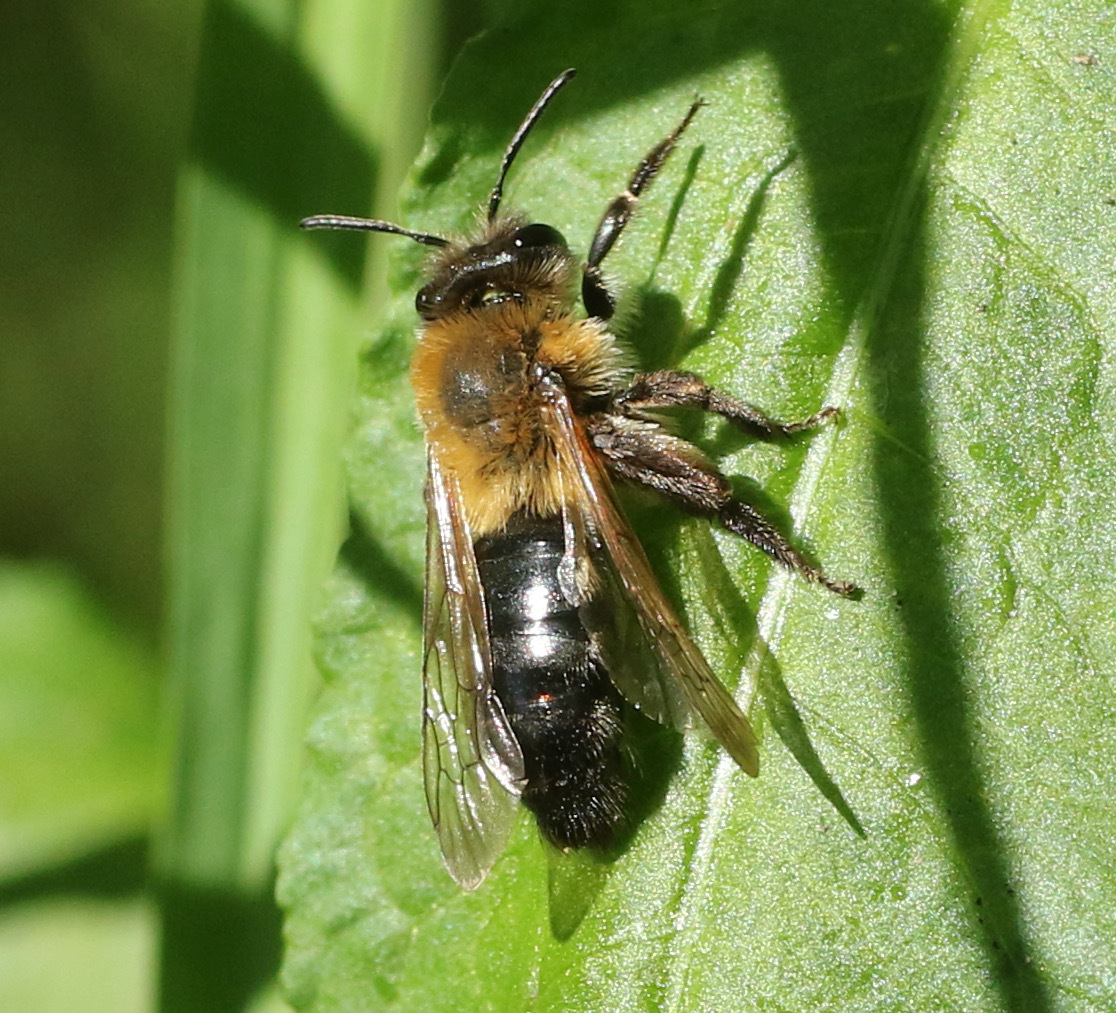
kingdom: Animalia
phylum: Arthropoda
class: Insecta
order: Hymenoptera
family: Andrenidae
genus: Andrena
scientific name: Andrena nitida
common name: Grey-patched mining bee
